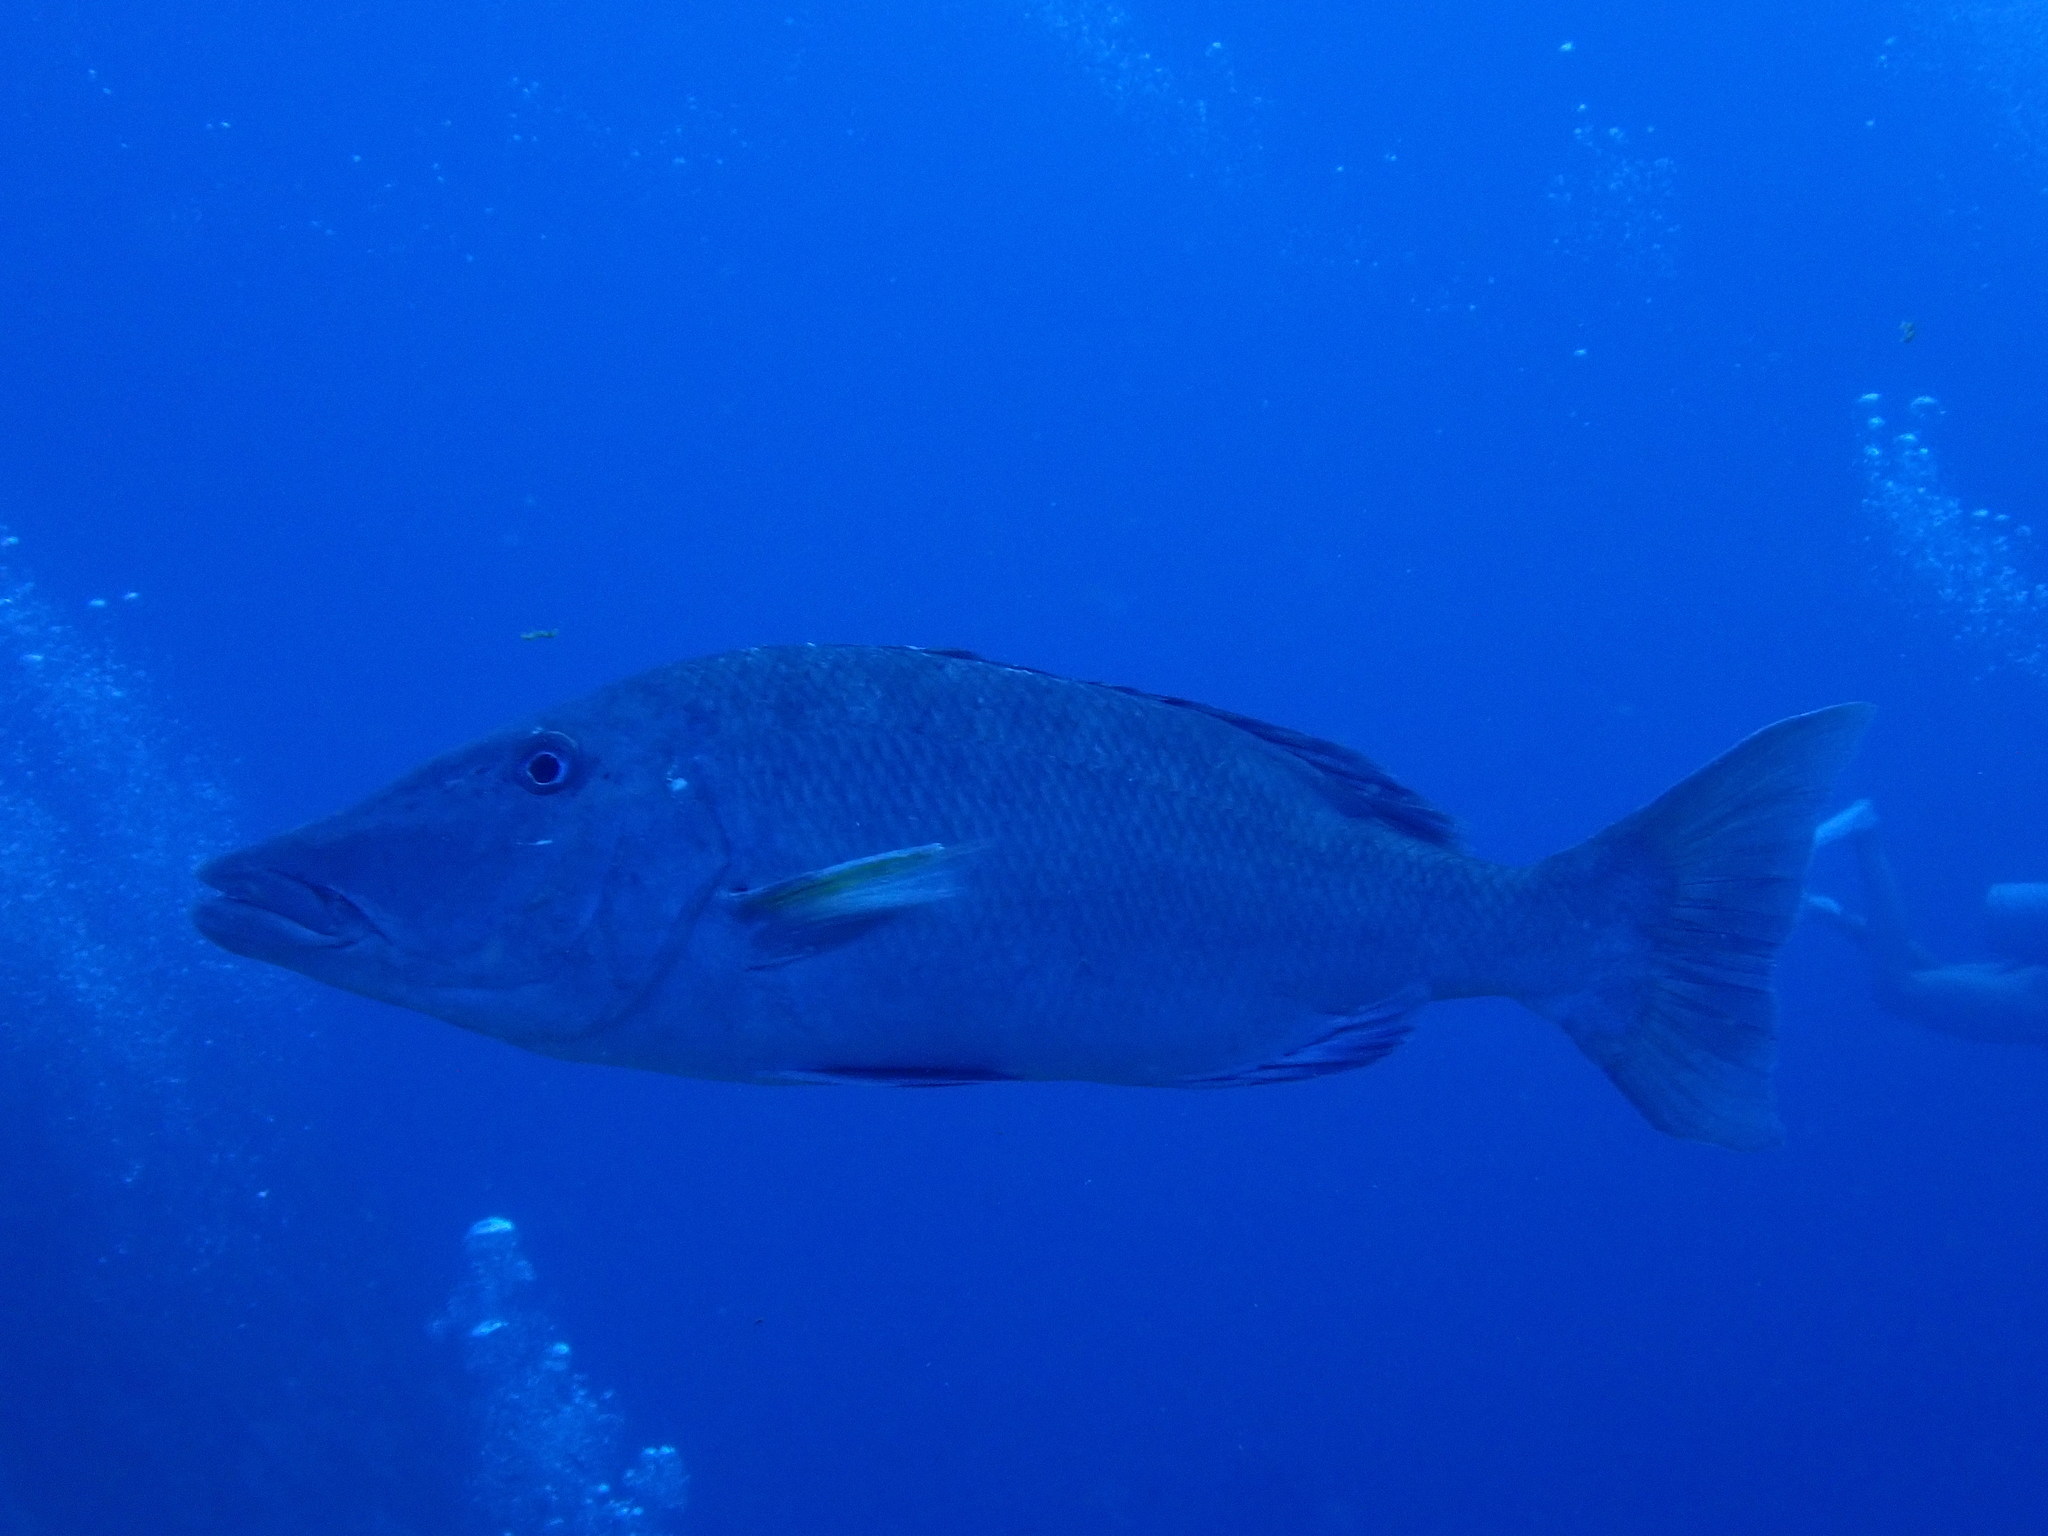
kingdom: Animalia
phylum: Chordata
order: Perciformes
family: Lethrinidae
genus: Lethrinus
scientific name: Lethrinus olivaceus
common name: Longnose emperor
